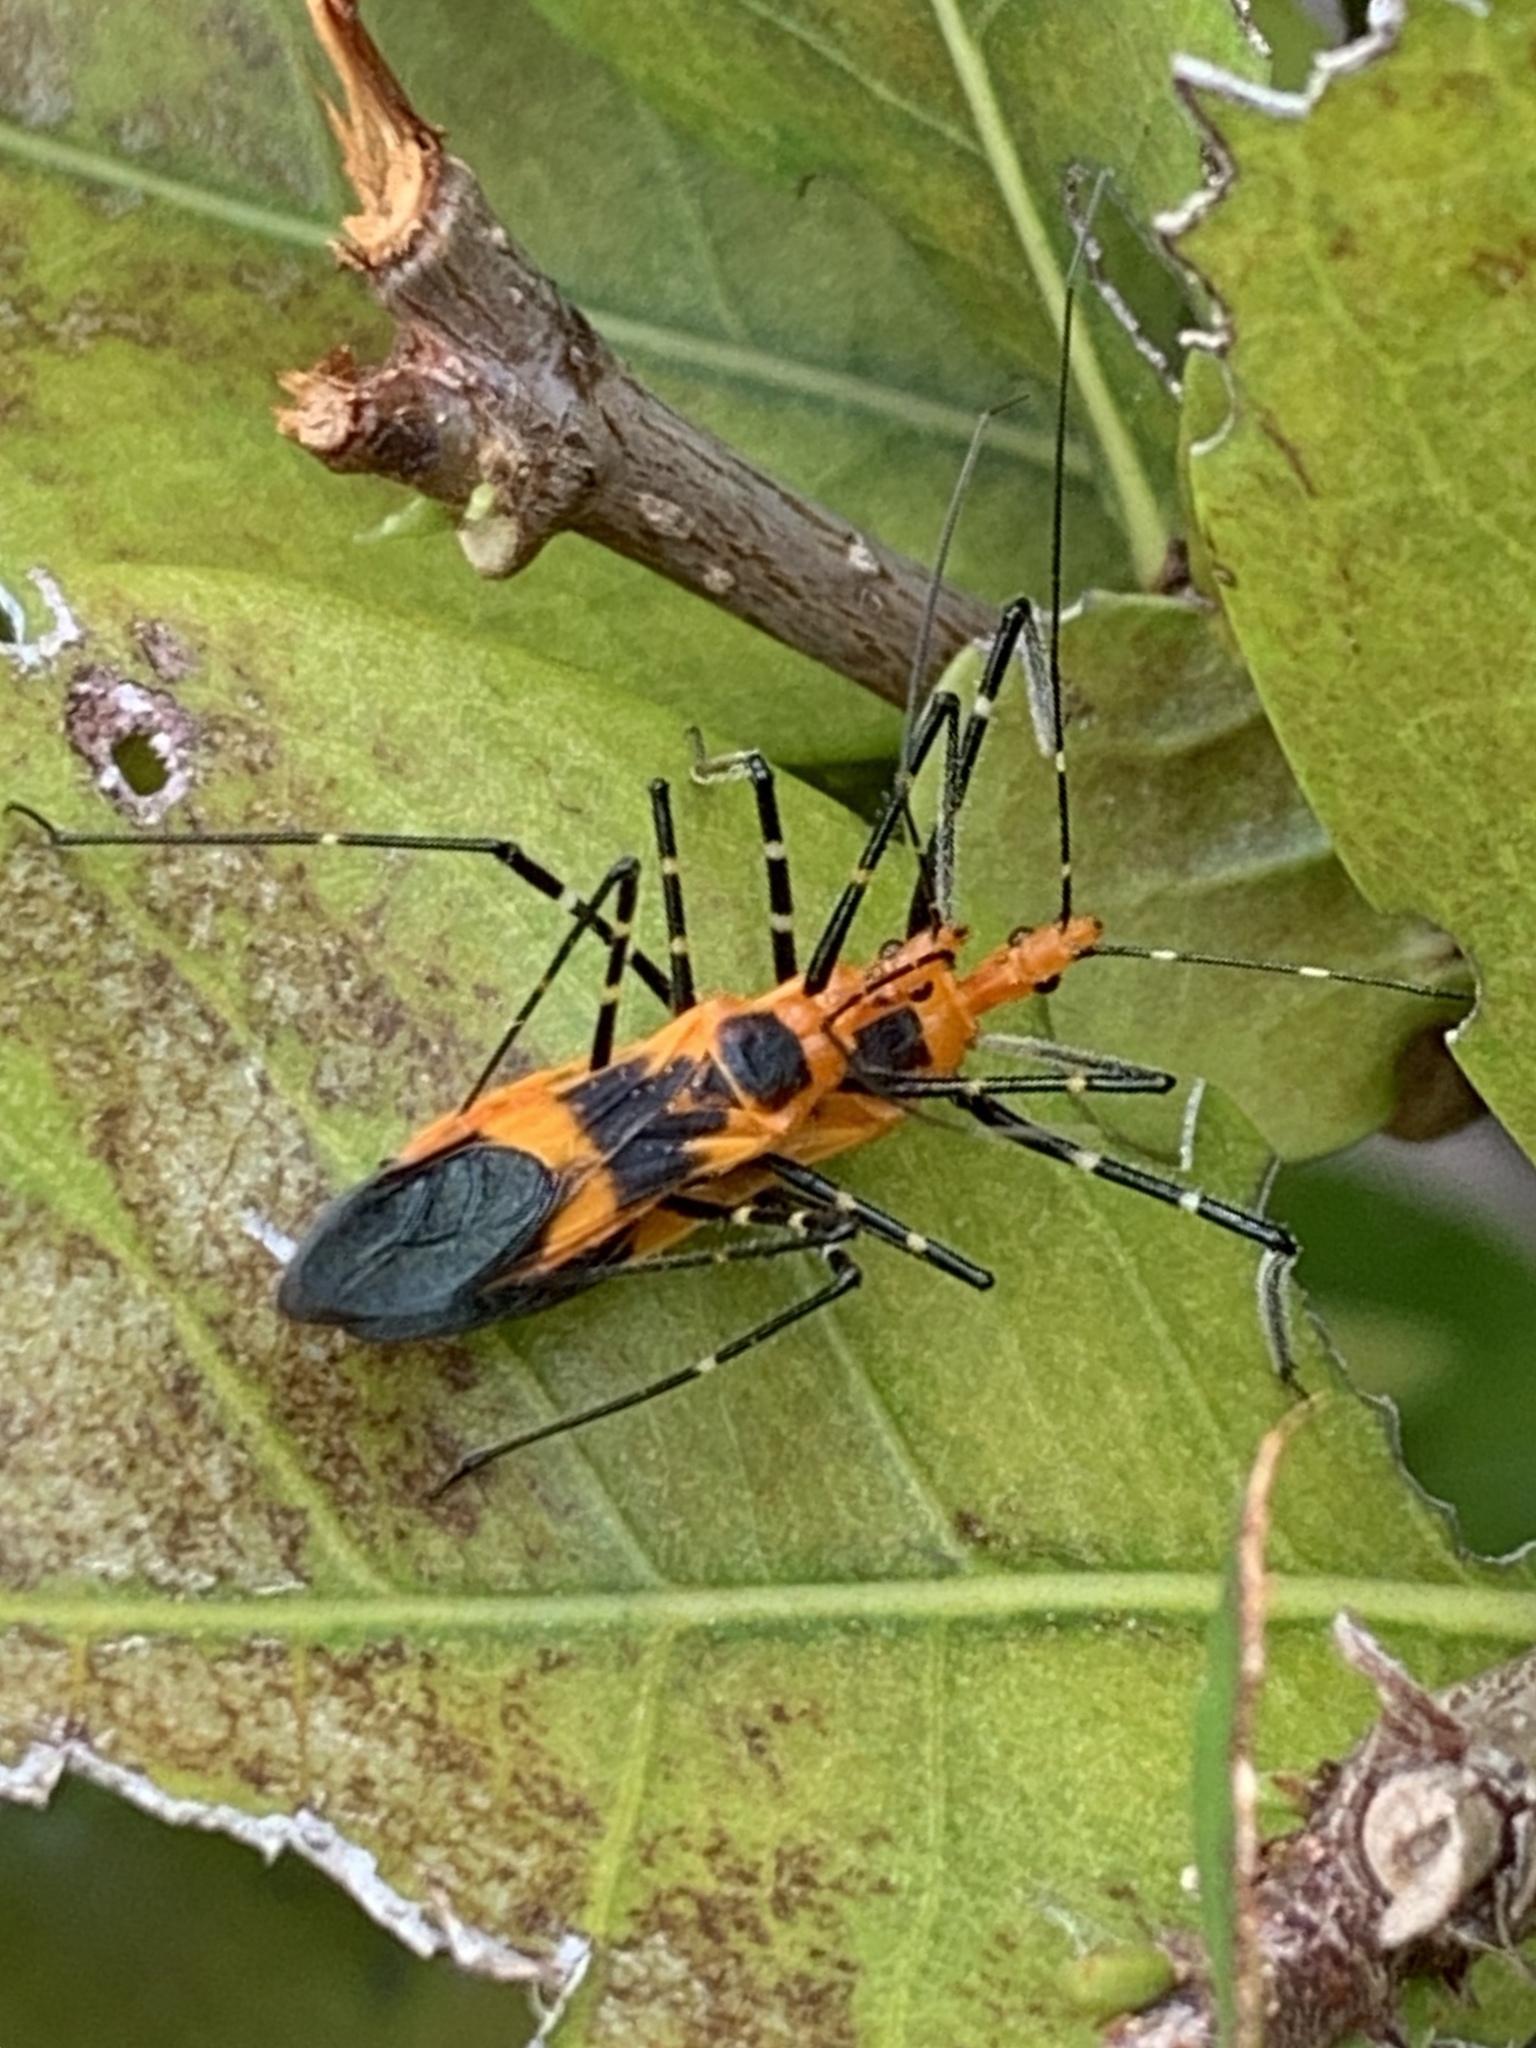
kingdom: Animalia
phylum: Arthropoda
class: Insecta
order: Hemiptera
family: Reduviidae
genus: Zelus
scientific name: Zelus longipes
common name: Milkweed assassin bug
